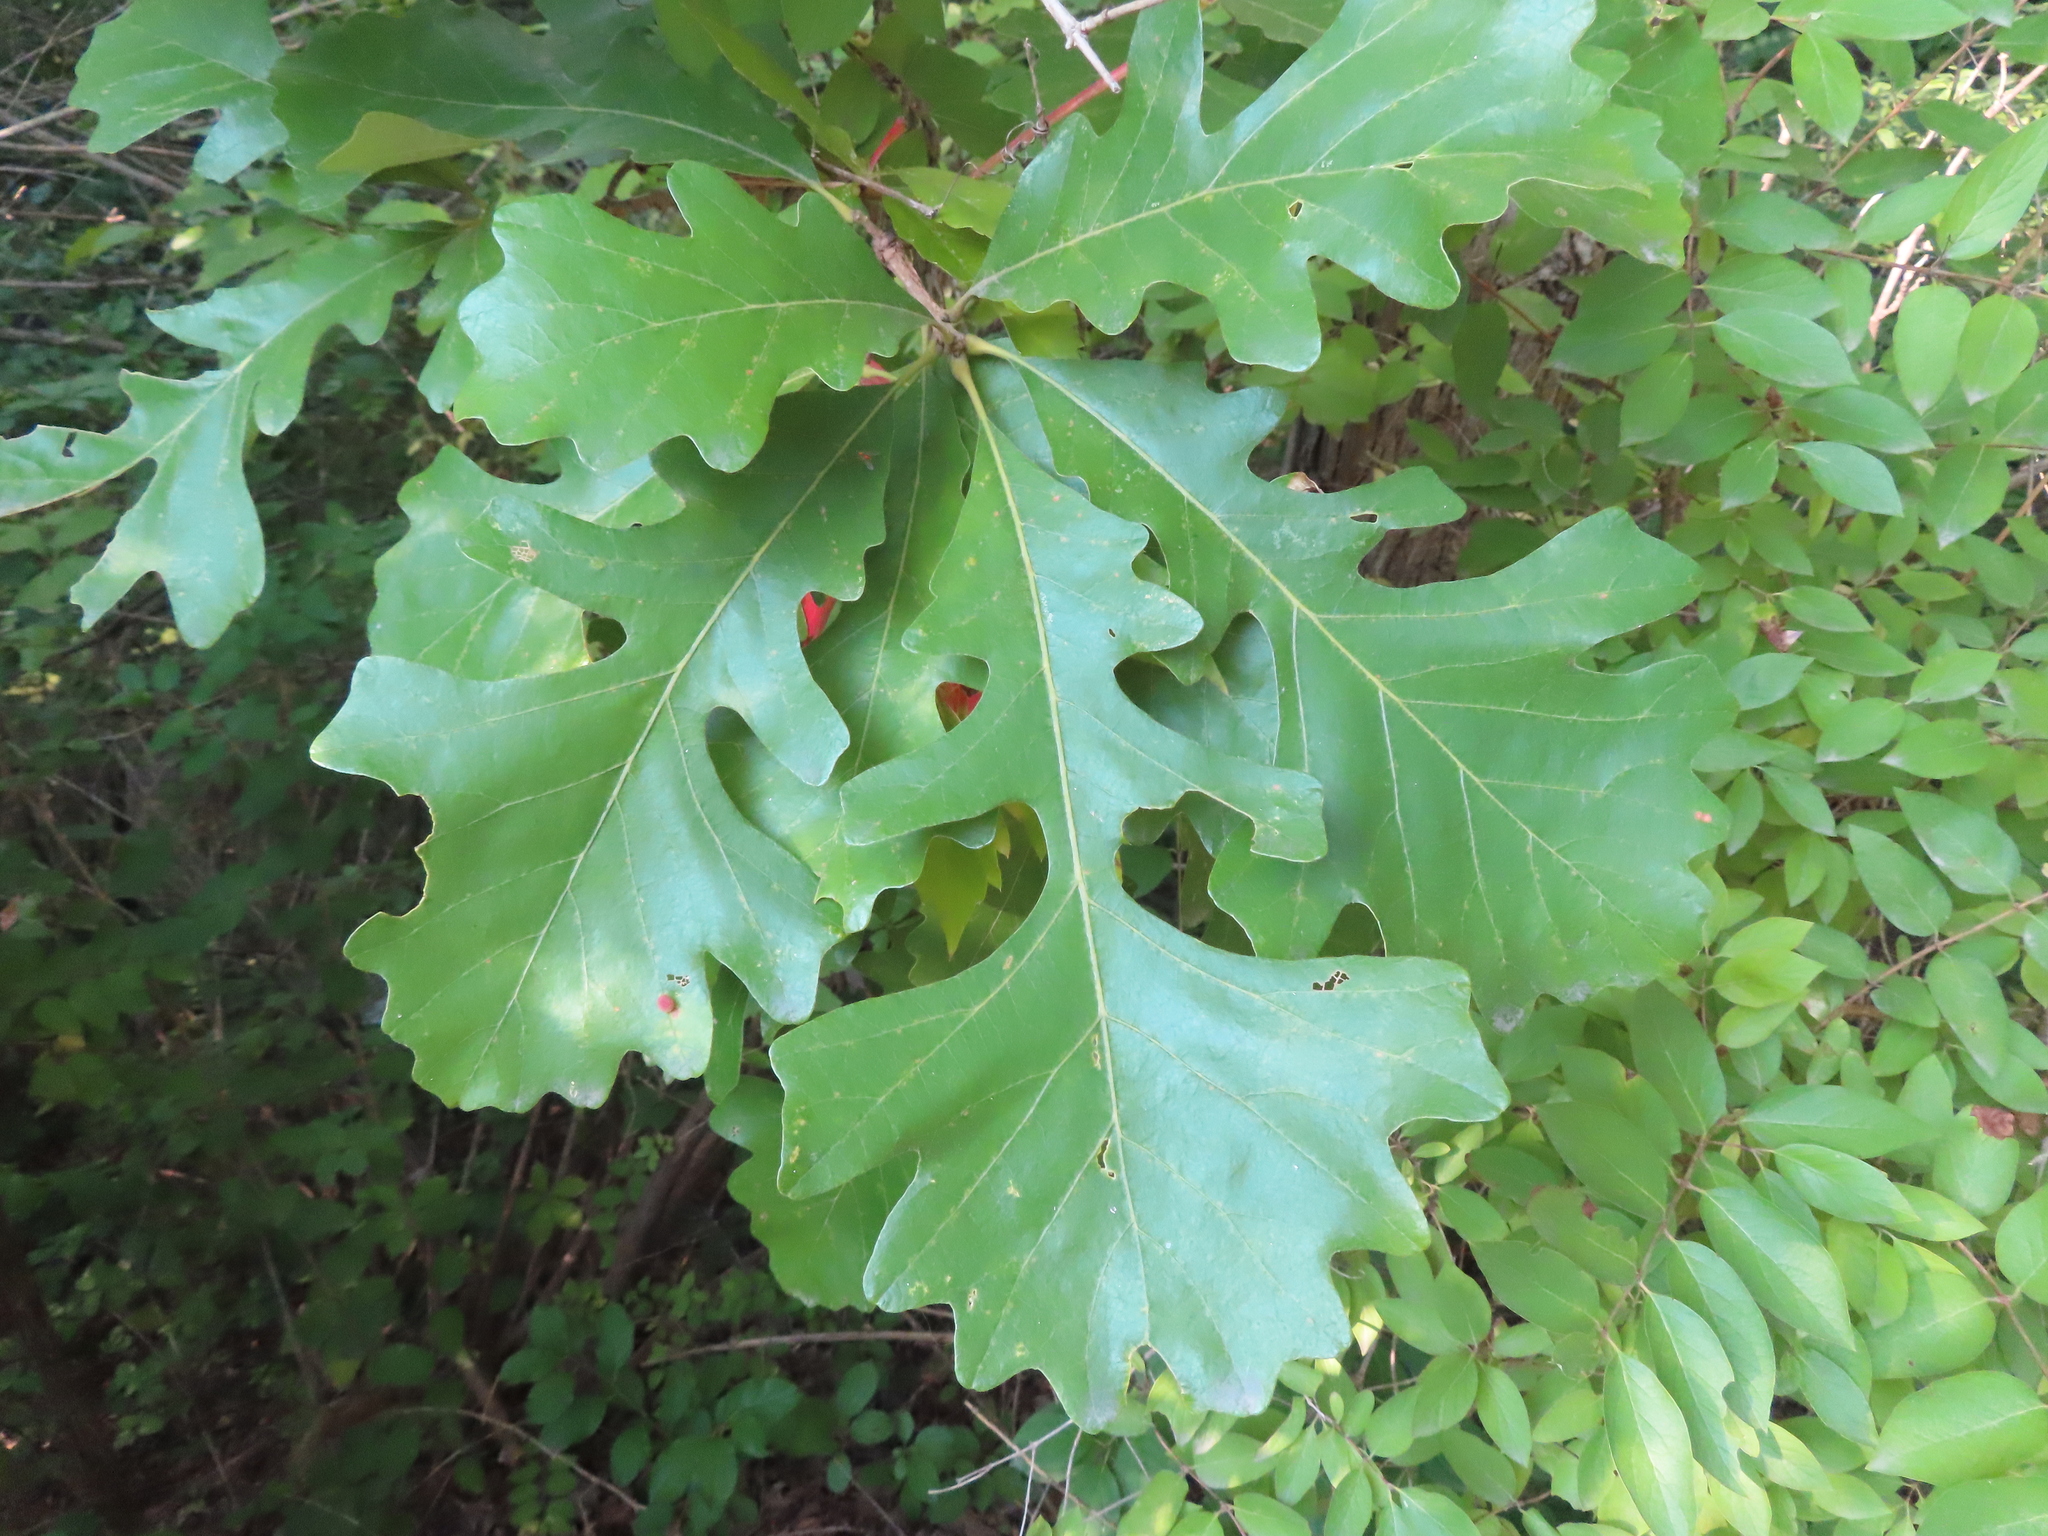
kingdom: Animalia
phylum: Arthropoda
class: Insecta
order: Hymenoptera
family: Cynipidae
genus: Acraspis
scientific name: Acraspis quercushirta
